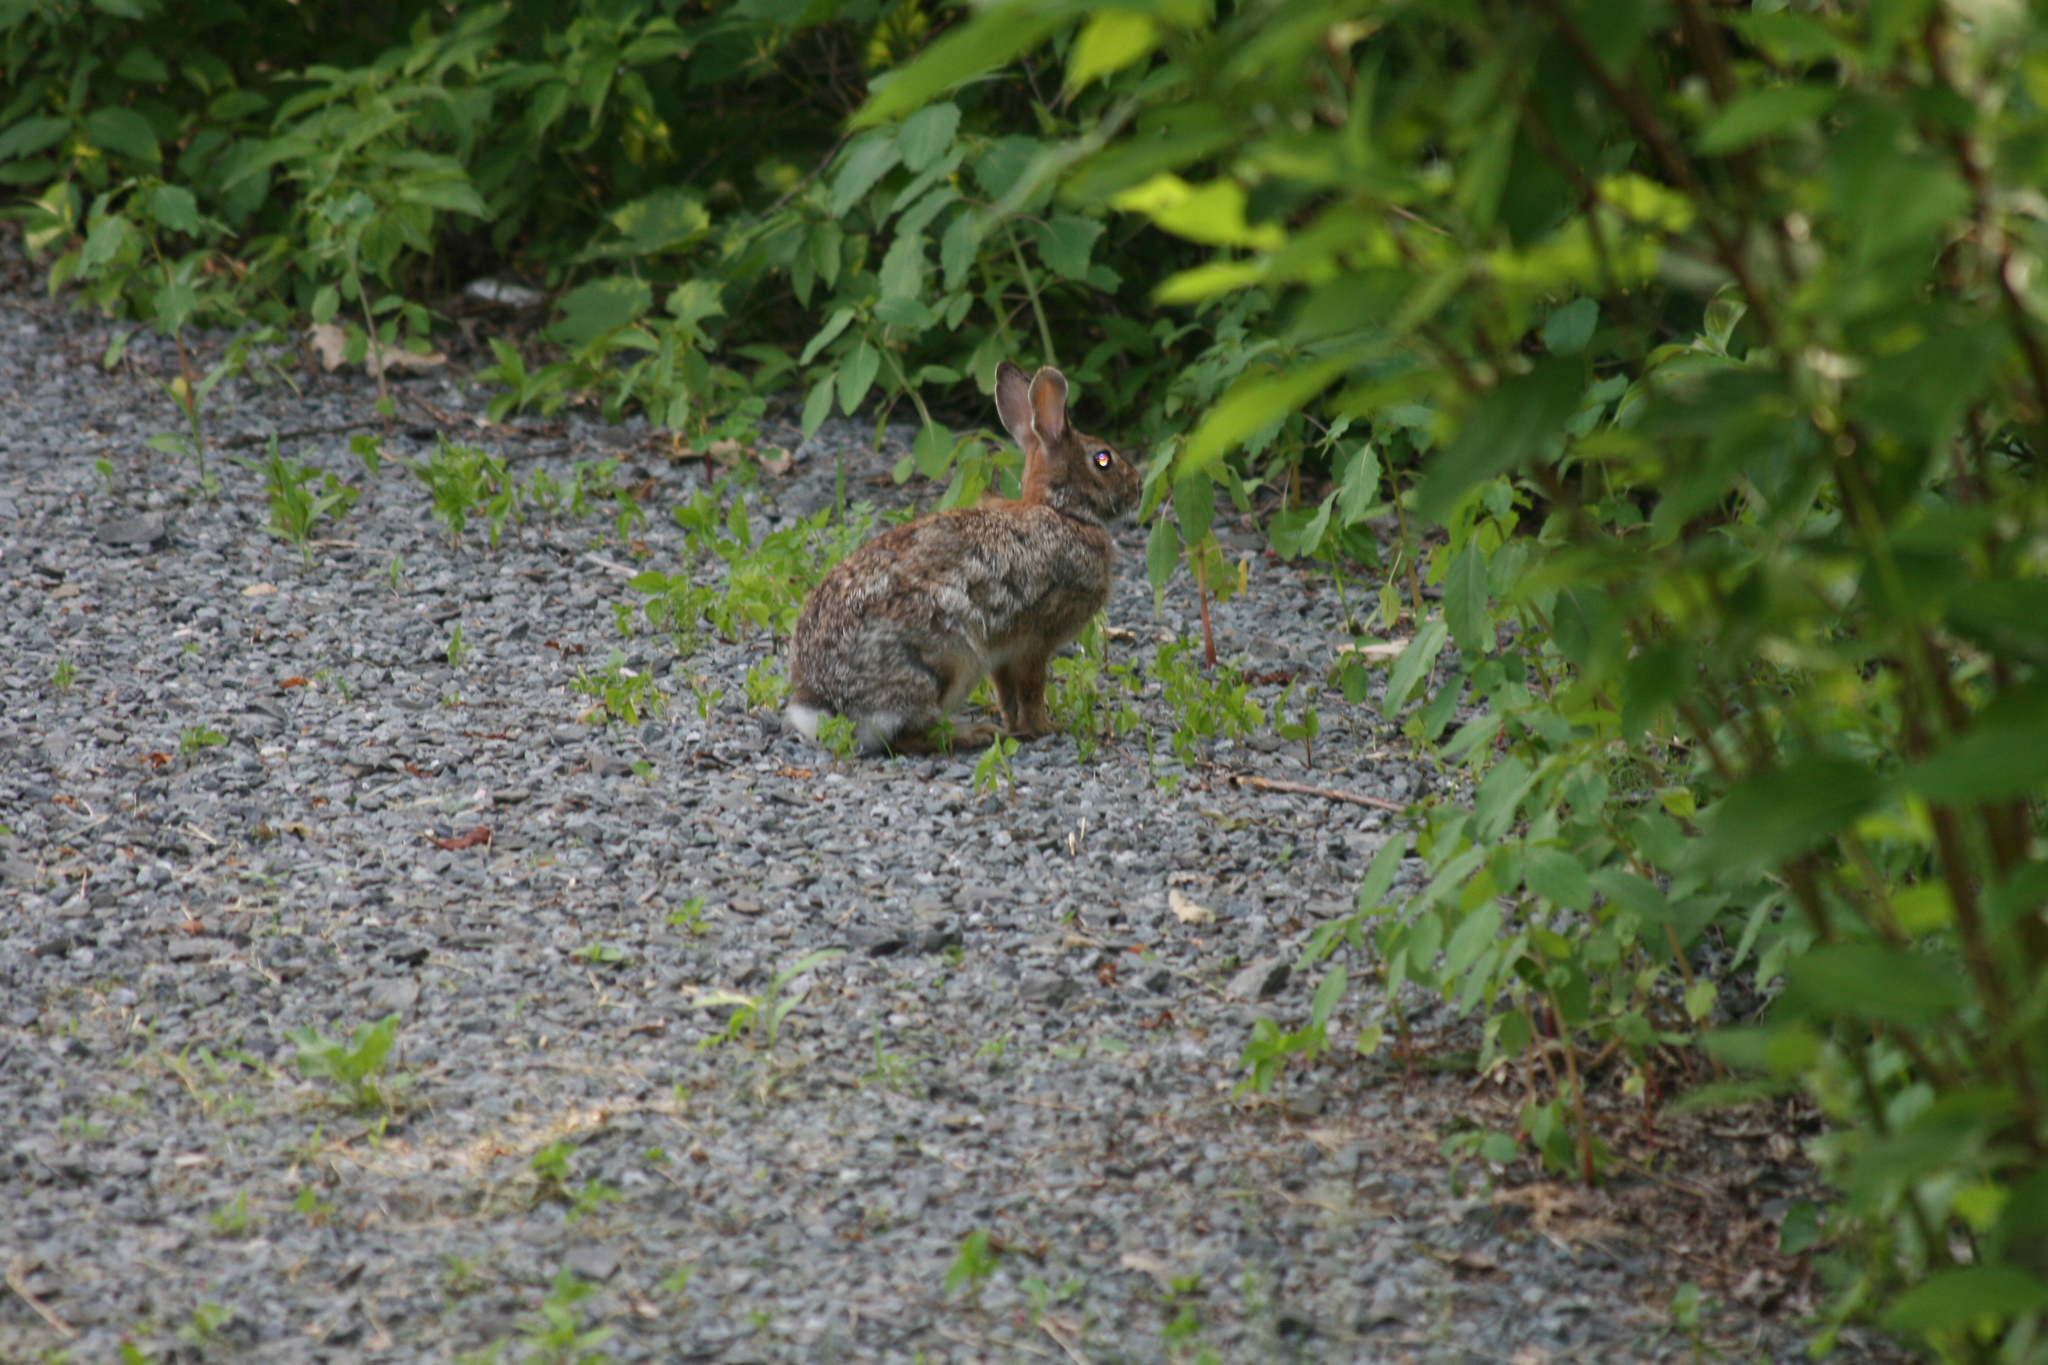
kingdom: Animalia
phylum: Chordata
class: Mammalia
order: Lagomorpha
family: Leporidae
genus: Sylvilagus
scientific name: Sylvilagus floridanus
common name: Eastern cottontail
